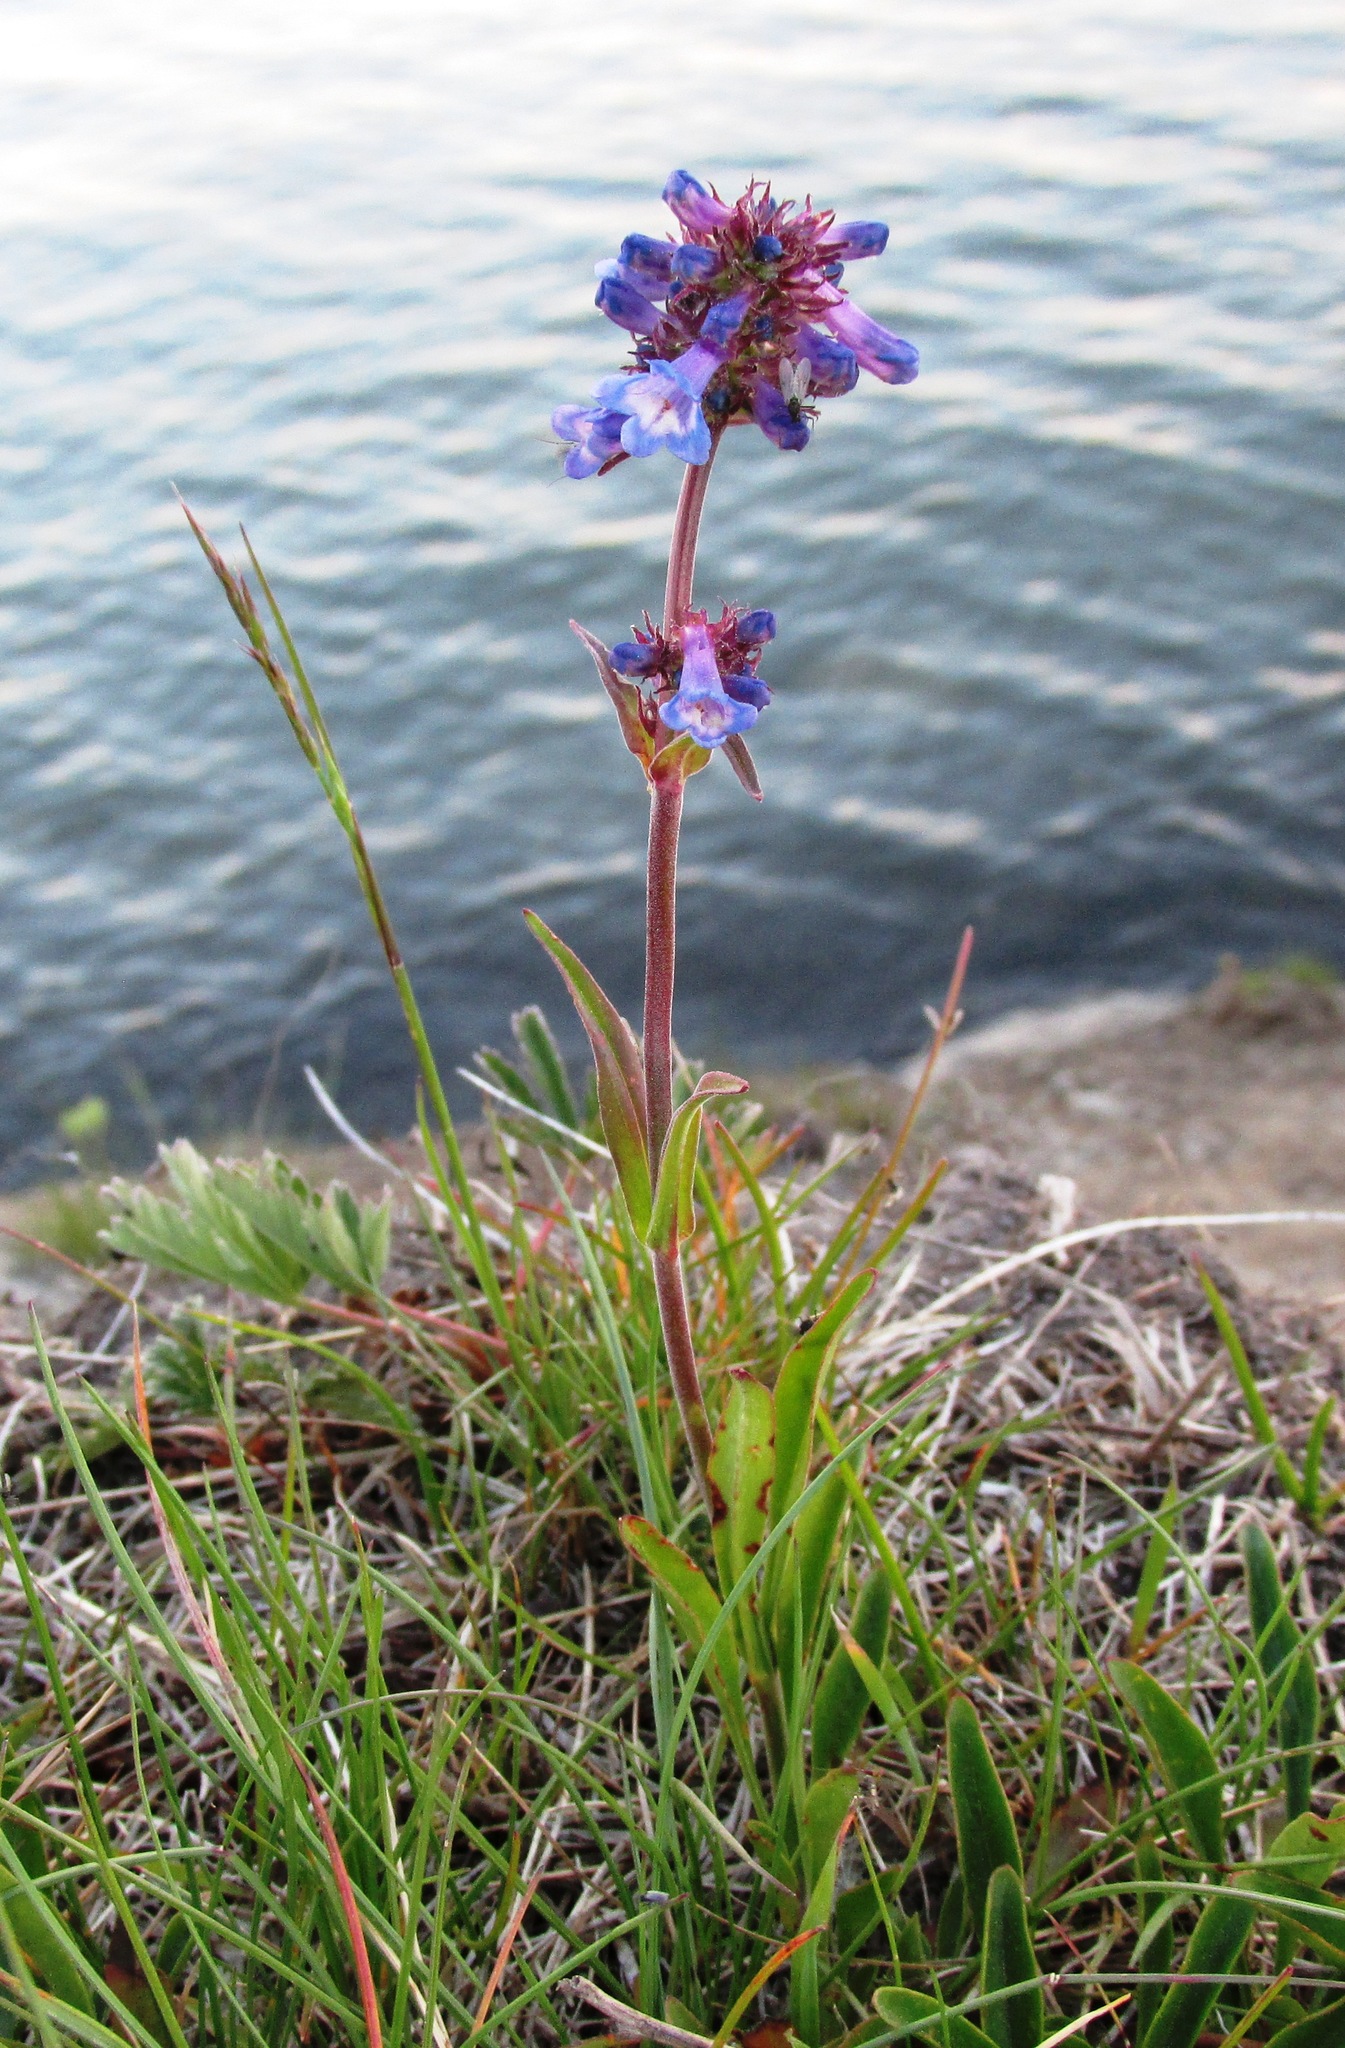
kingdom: Plantae
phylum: Tracheophyta
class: Magnoliopsida
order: Lamiales
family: Plantaginaceae
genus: Penstemon
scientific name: Penstemon procerus
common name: Small-flower penstemon
